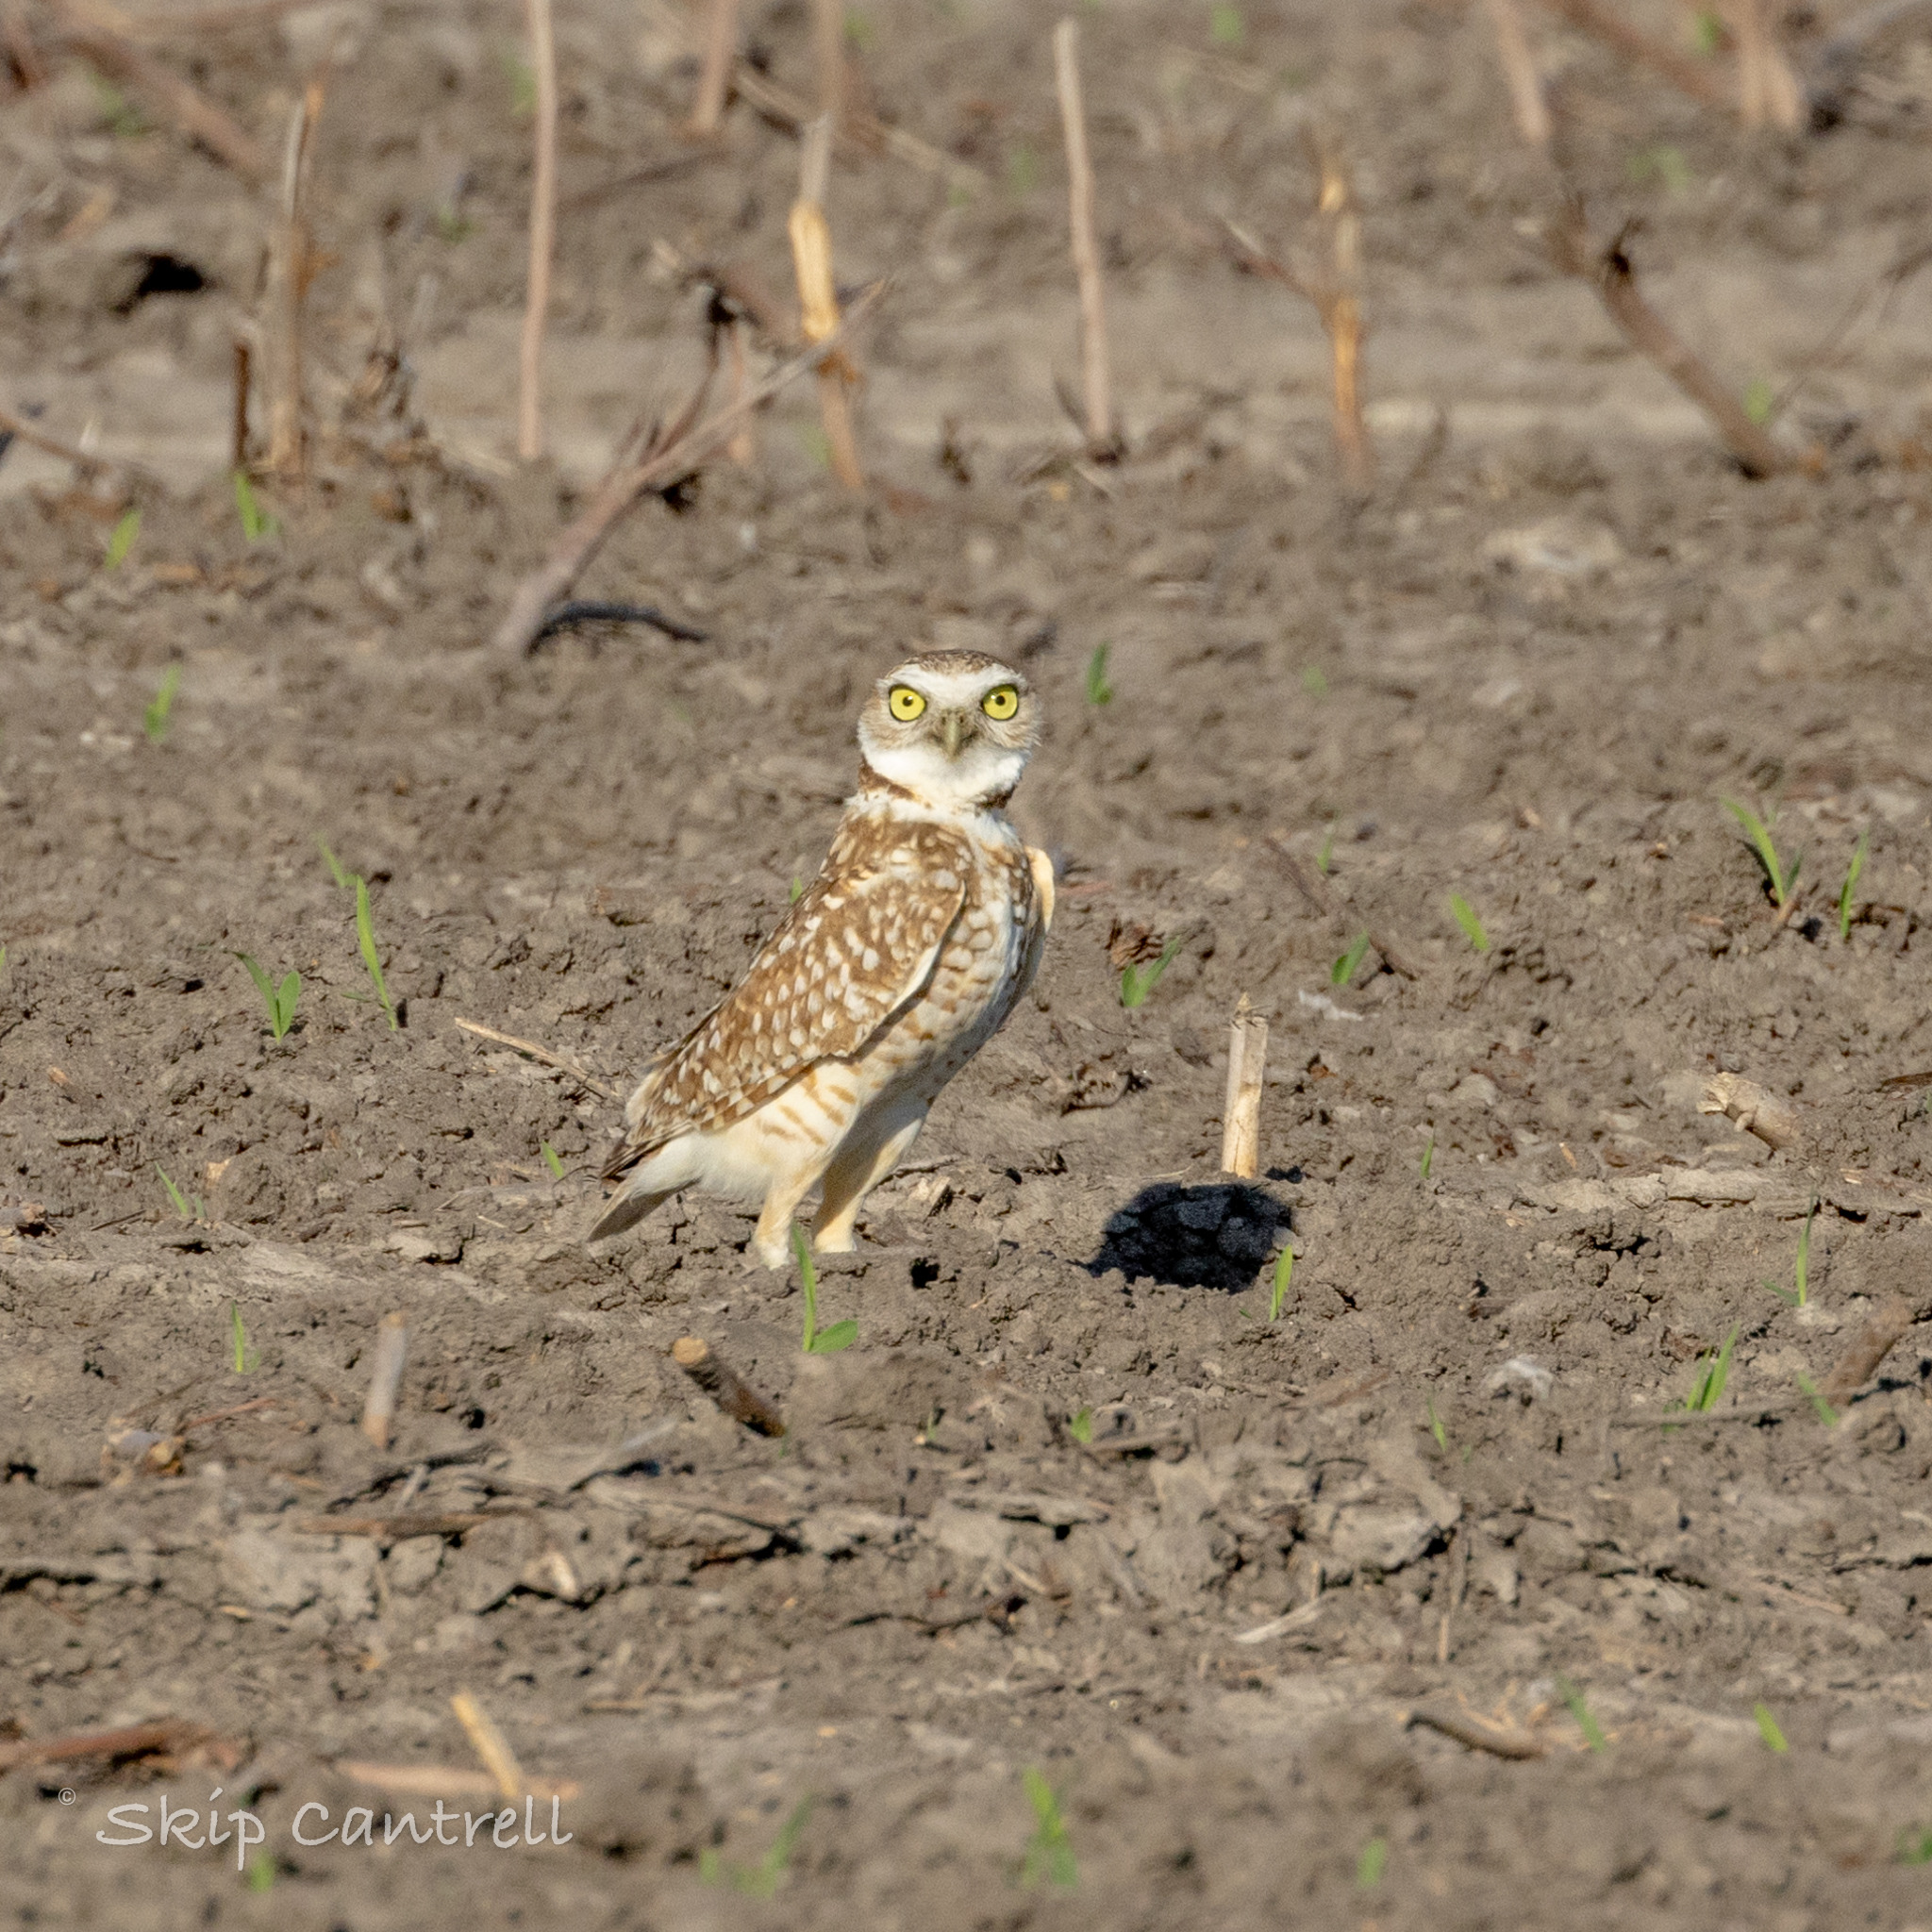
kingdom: Animalia
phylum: Chordata
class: Aves
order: Strigiformes
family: Strigidae
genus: Athene
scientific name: Athene cunicularia
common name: Burrowing owl
